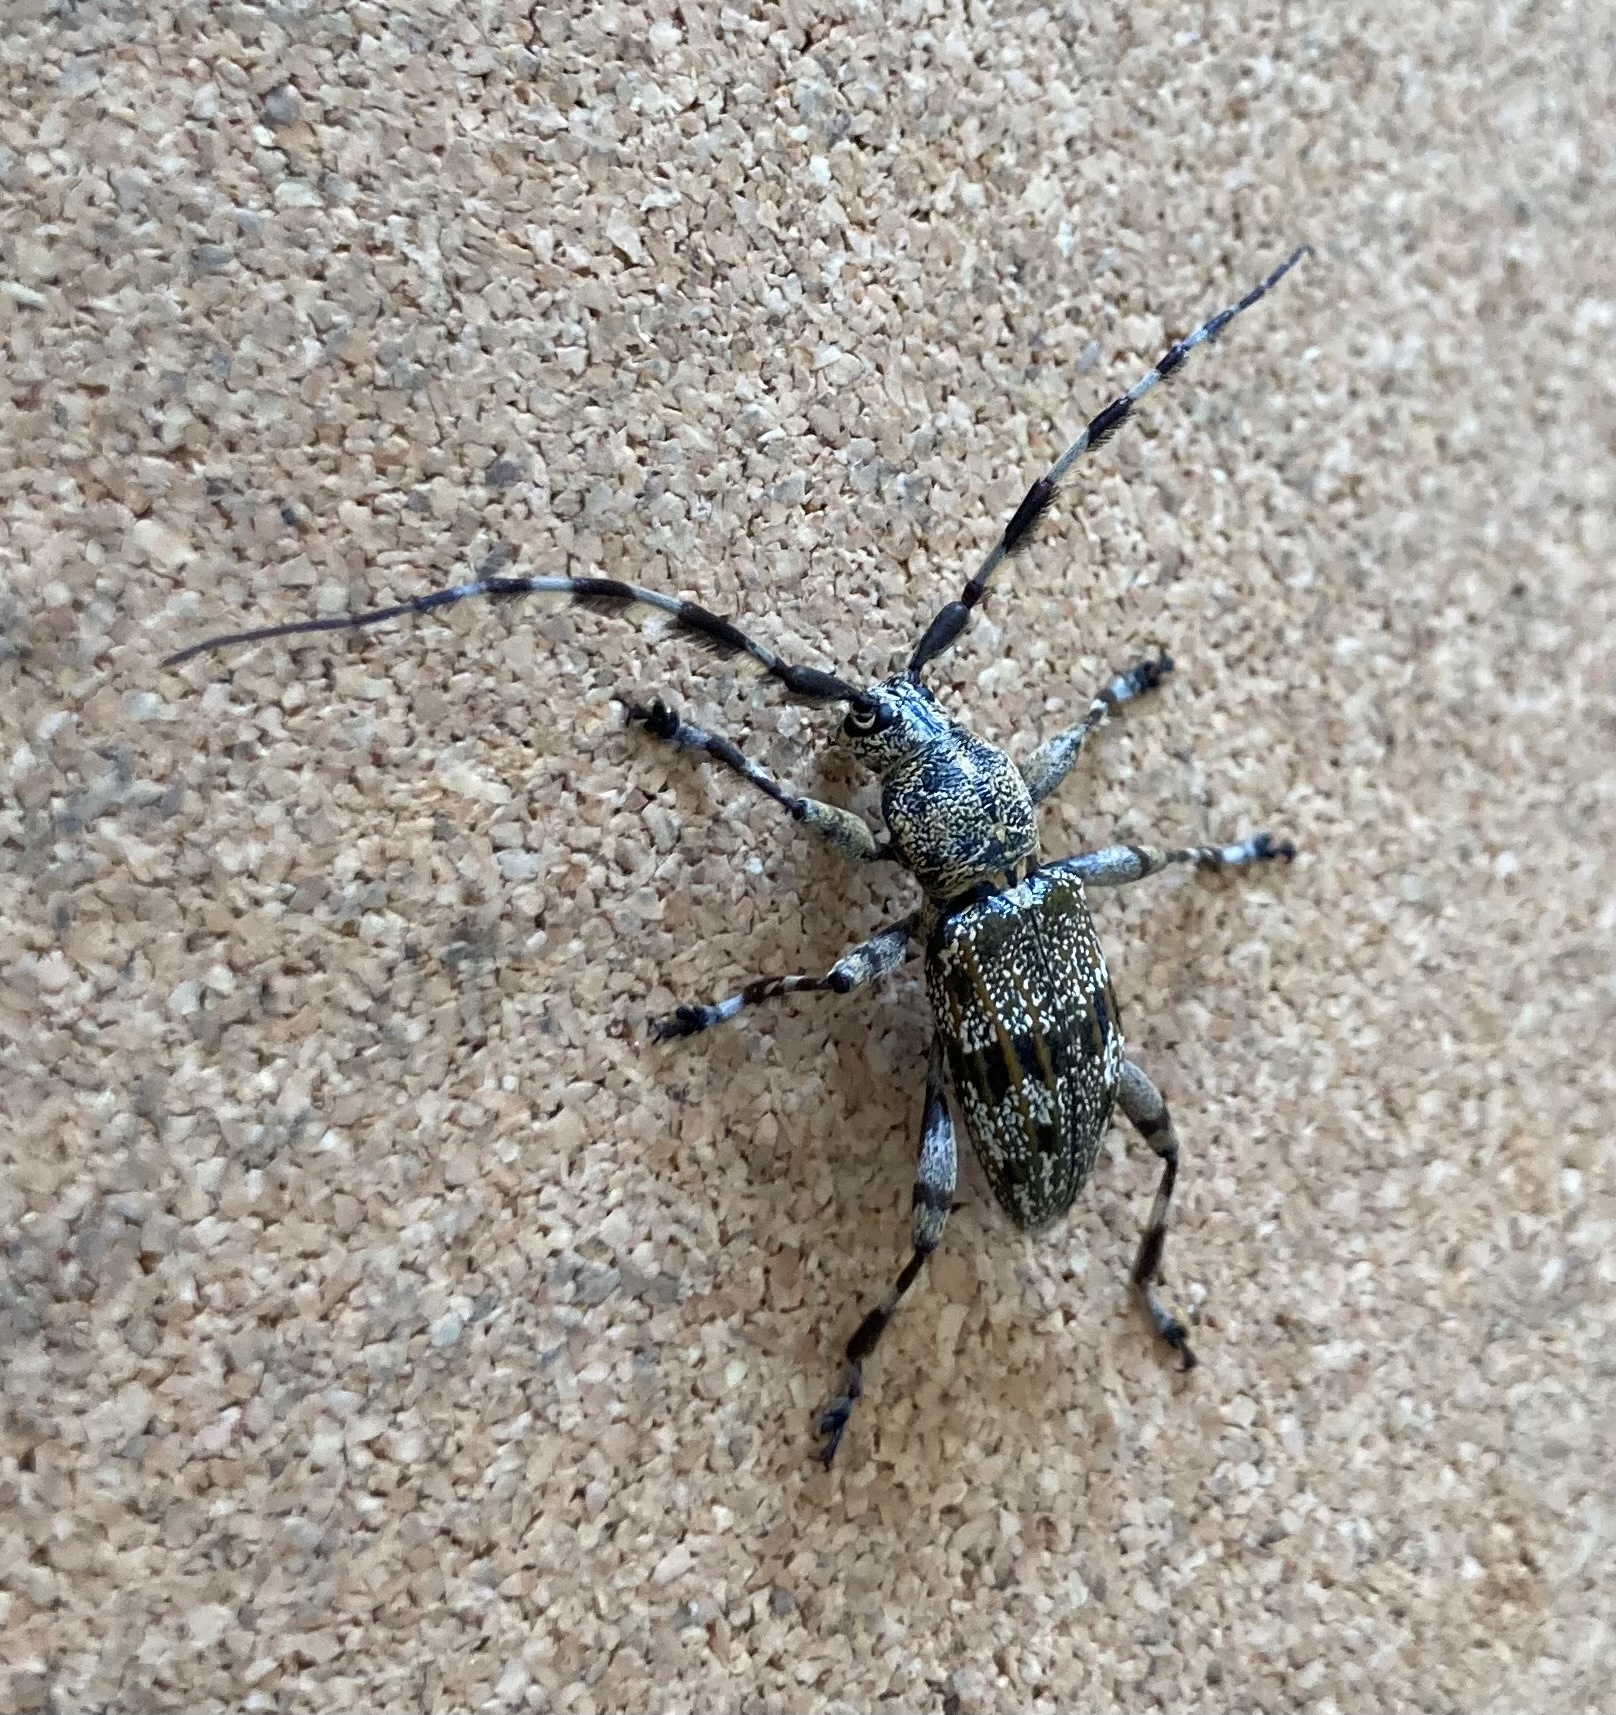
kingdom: Animalia
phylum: Arthropoda
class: Insecta
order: Coleoptera
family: Cerambycidae
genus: Hexatricha
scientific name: Hexatricha pulverulenta
